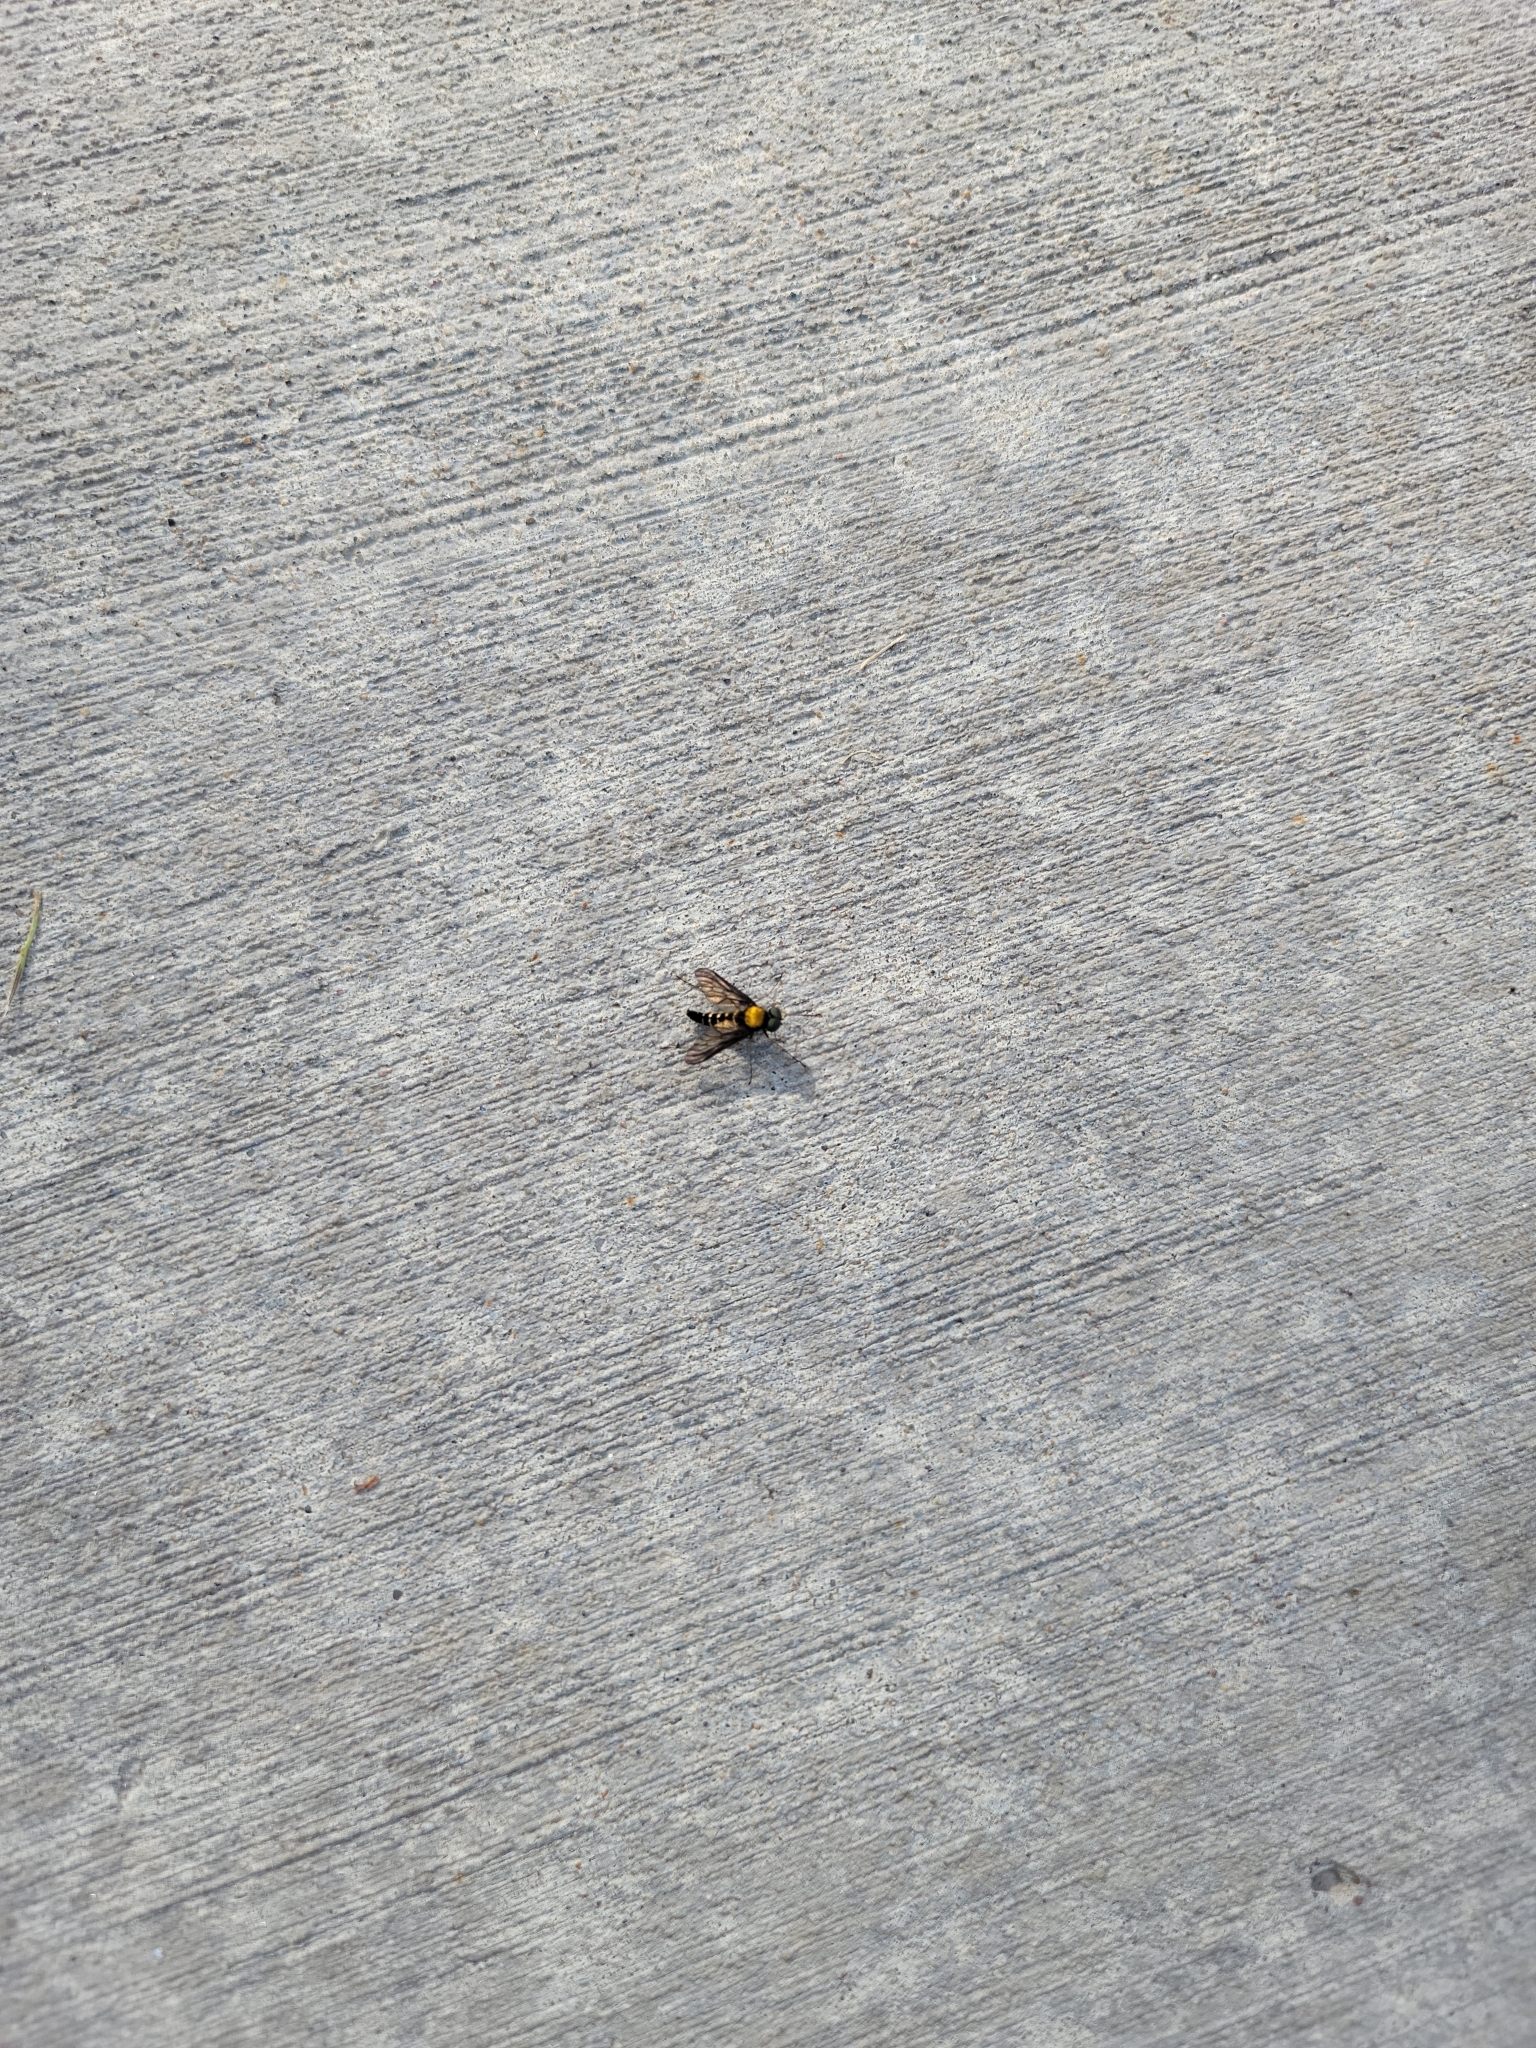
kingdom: Animalia
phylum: Arthropoda
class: Insecta
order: Diptera
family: Rhagionidae
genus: Chrysopilus
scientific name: Chrysopilus thoracicus
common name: Golden-backed snipe fly
